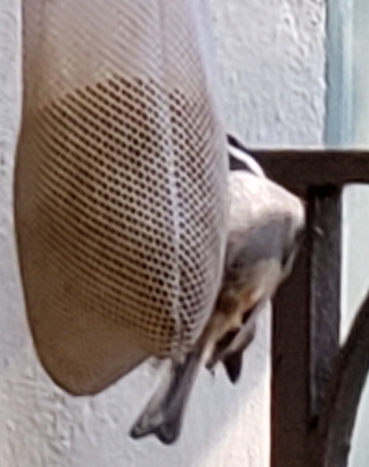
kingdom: Animalia
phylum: Chordata
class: Aves
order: Passeriformes
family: Paridae
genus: Poecile
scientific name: Poecile rufescens
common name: Chestnut-backed chickadee
